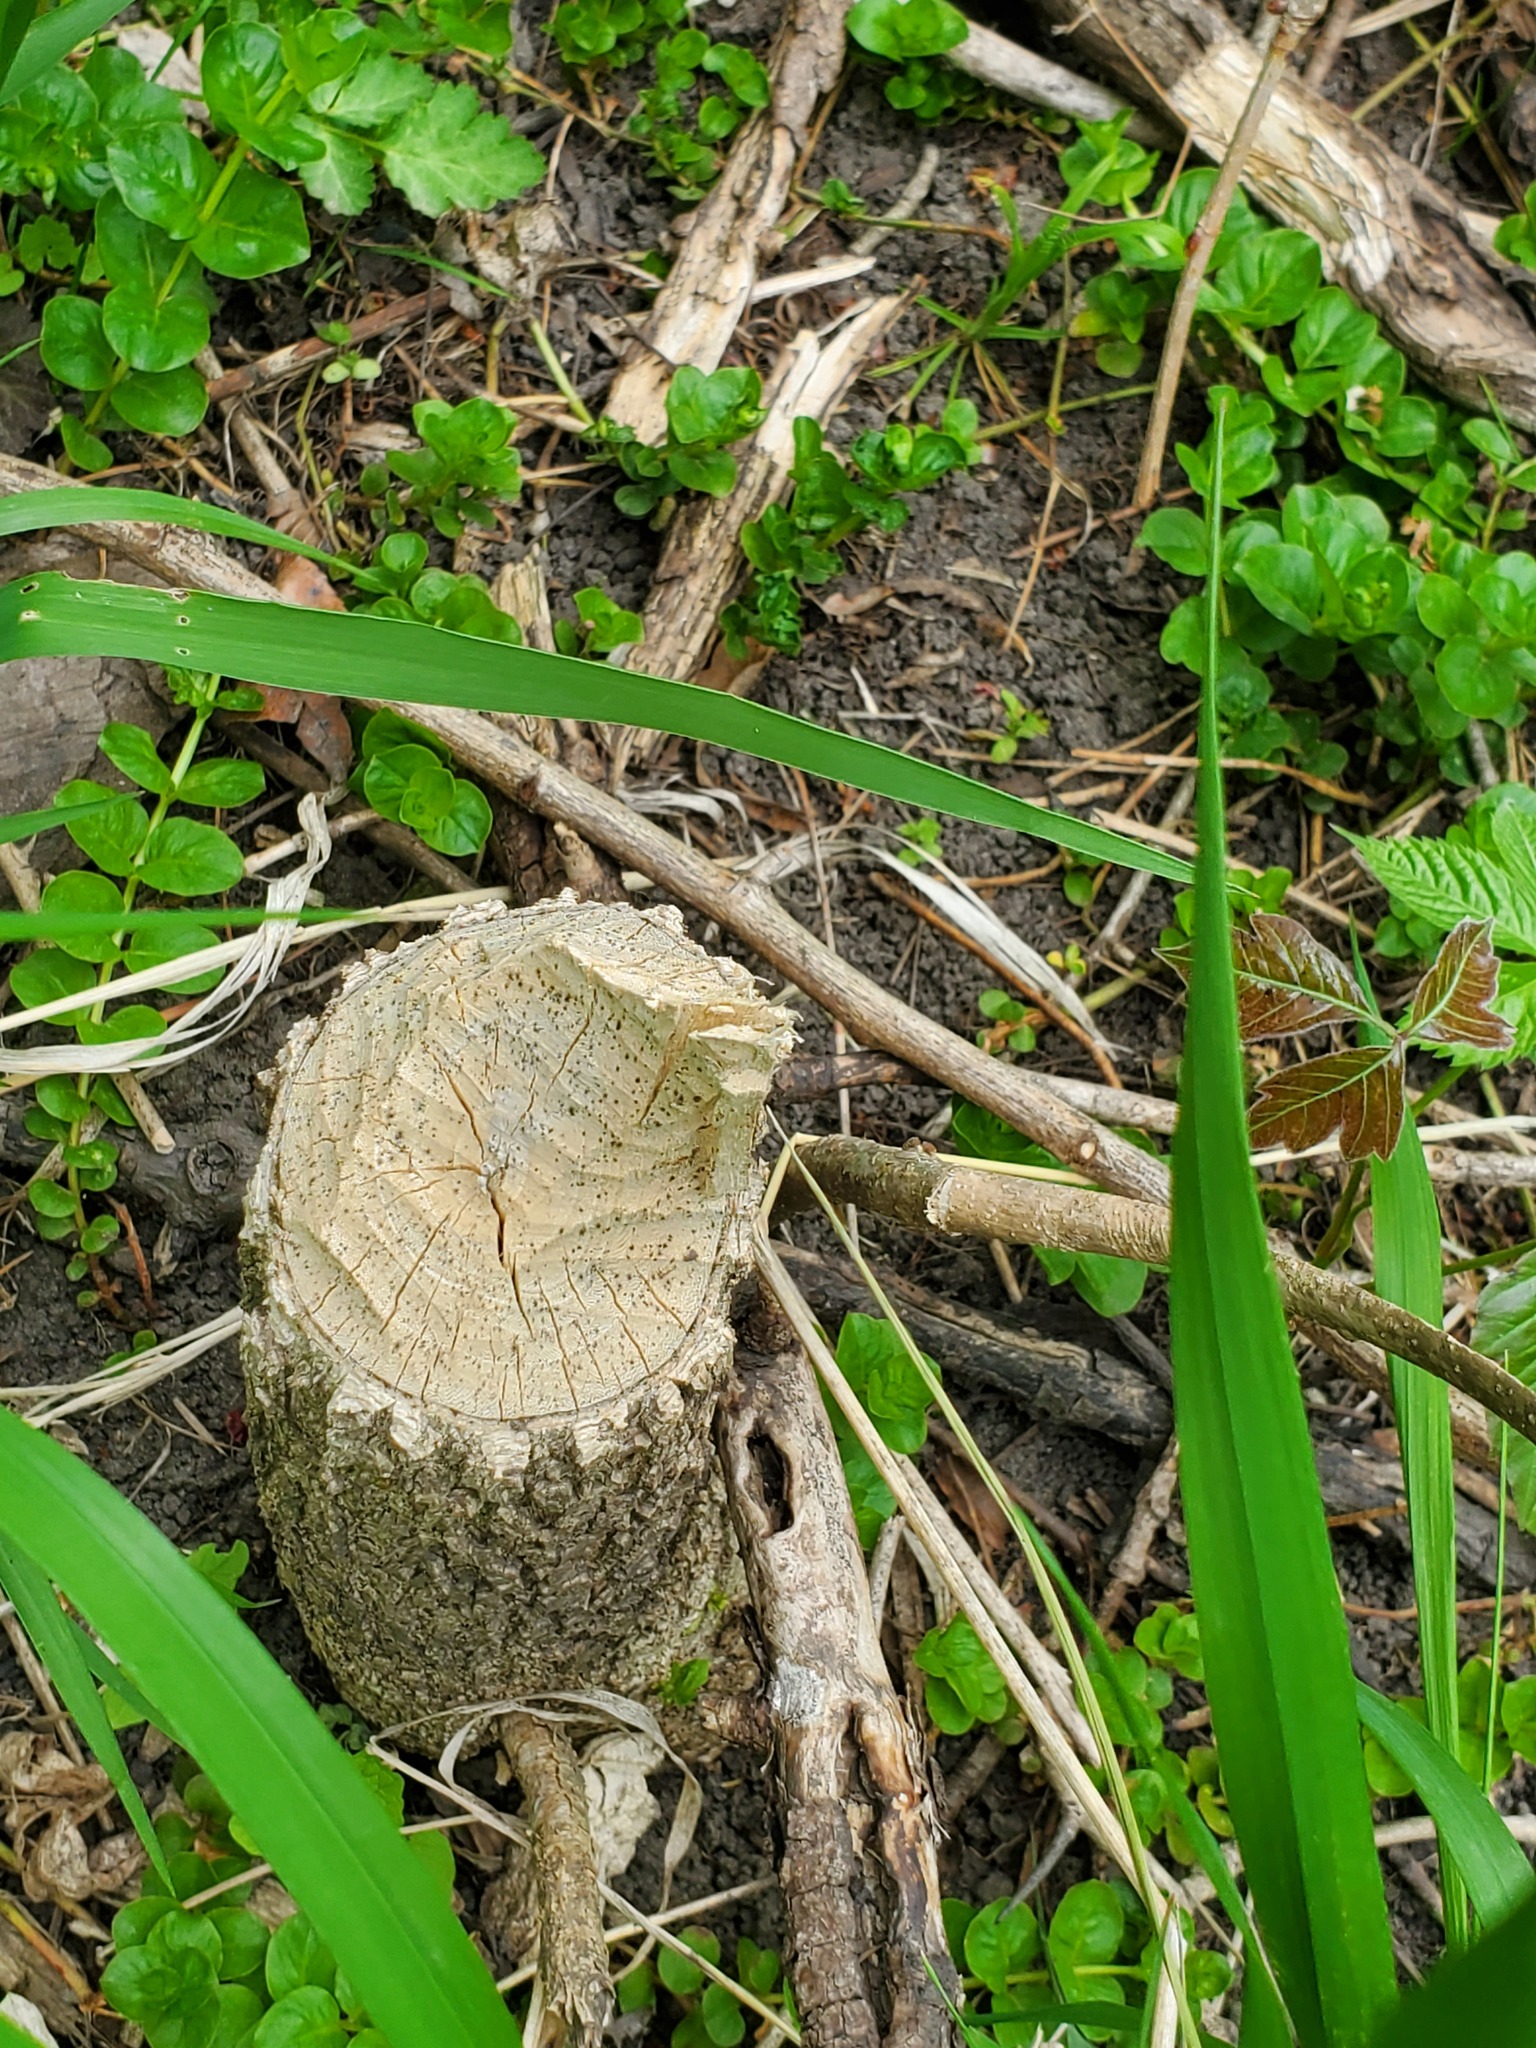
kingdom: Animalia
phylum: Chordata
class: Mammalia
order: Rodentia
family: Castoridae
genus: Castor
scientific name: Castor canadensis
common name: American beaver
